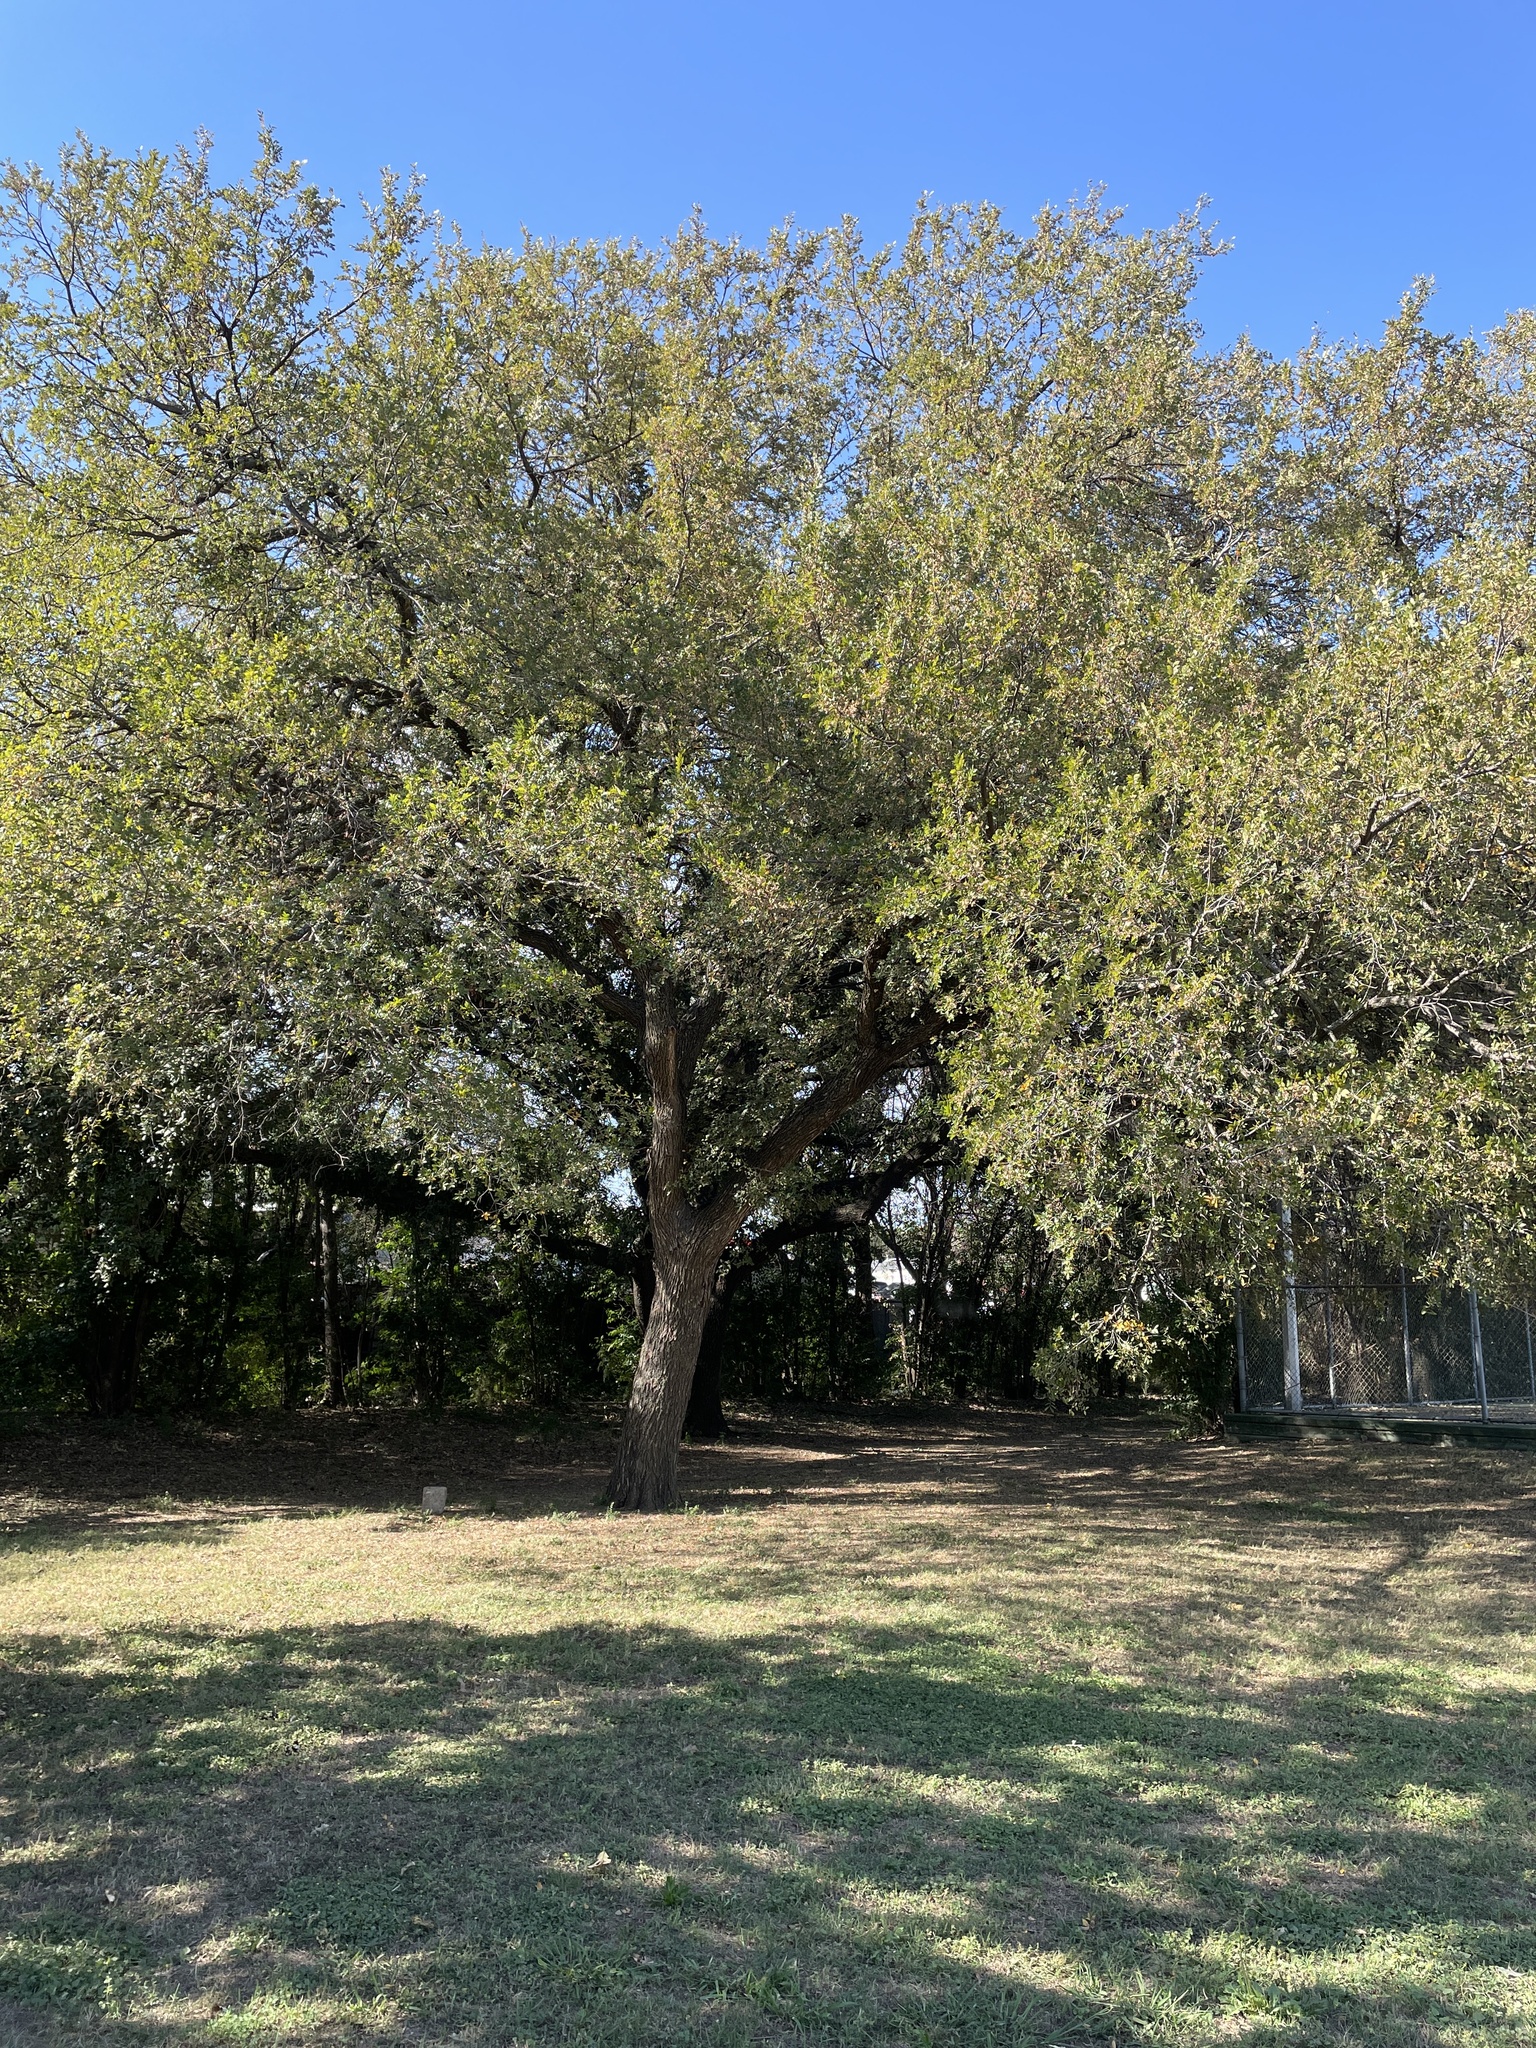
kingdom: Plantae
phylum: Tracheophyta
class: Magnoliopsida
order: Rosales
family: Ulmaceae
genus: Ulmus
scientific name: Ulmus crassifolia
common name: Basket elm
